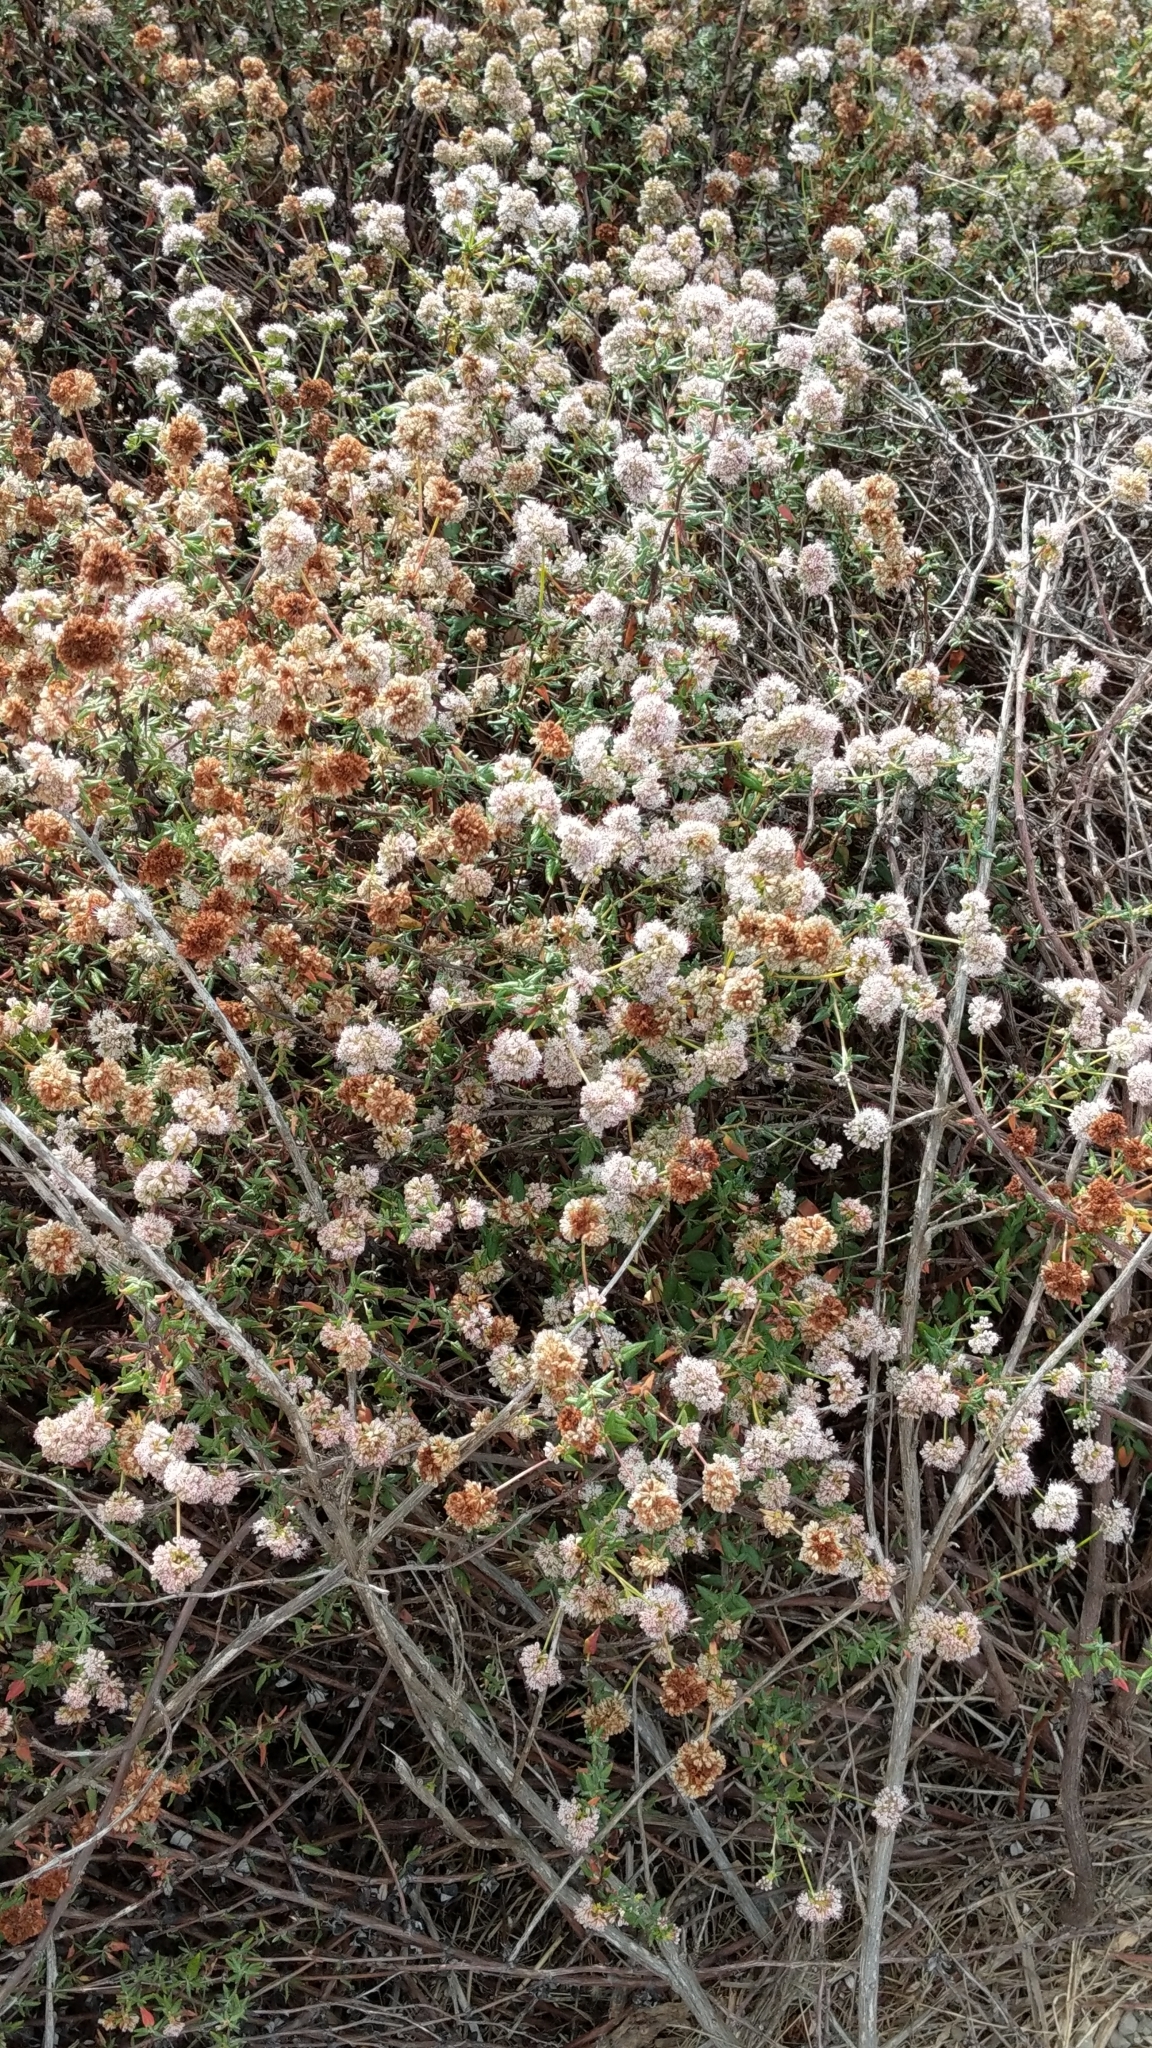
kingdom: Plantae
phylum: Tracheophyta
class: Magnoliopsida
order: Caryophyllales
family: Polygonaceae
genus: Eriogonum
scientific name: Eriogonum parvifolium
